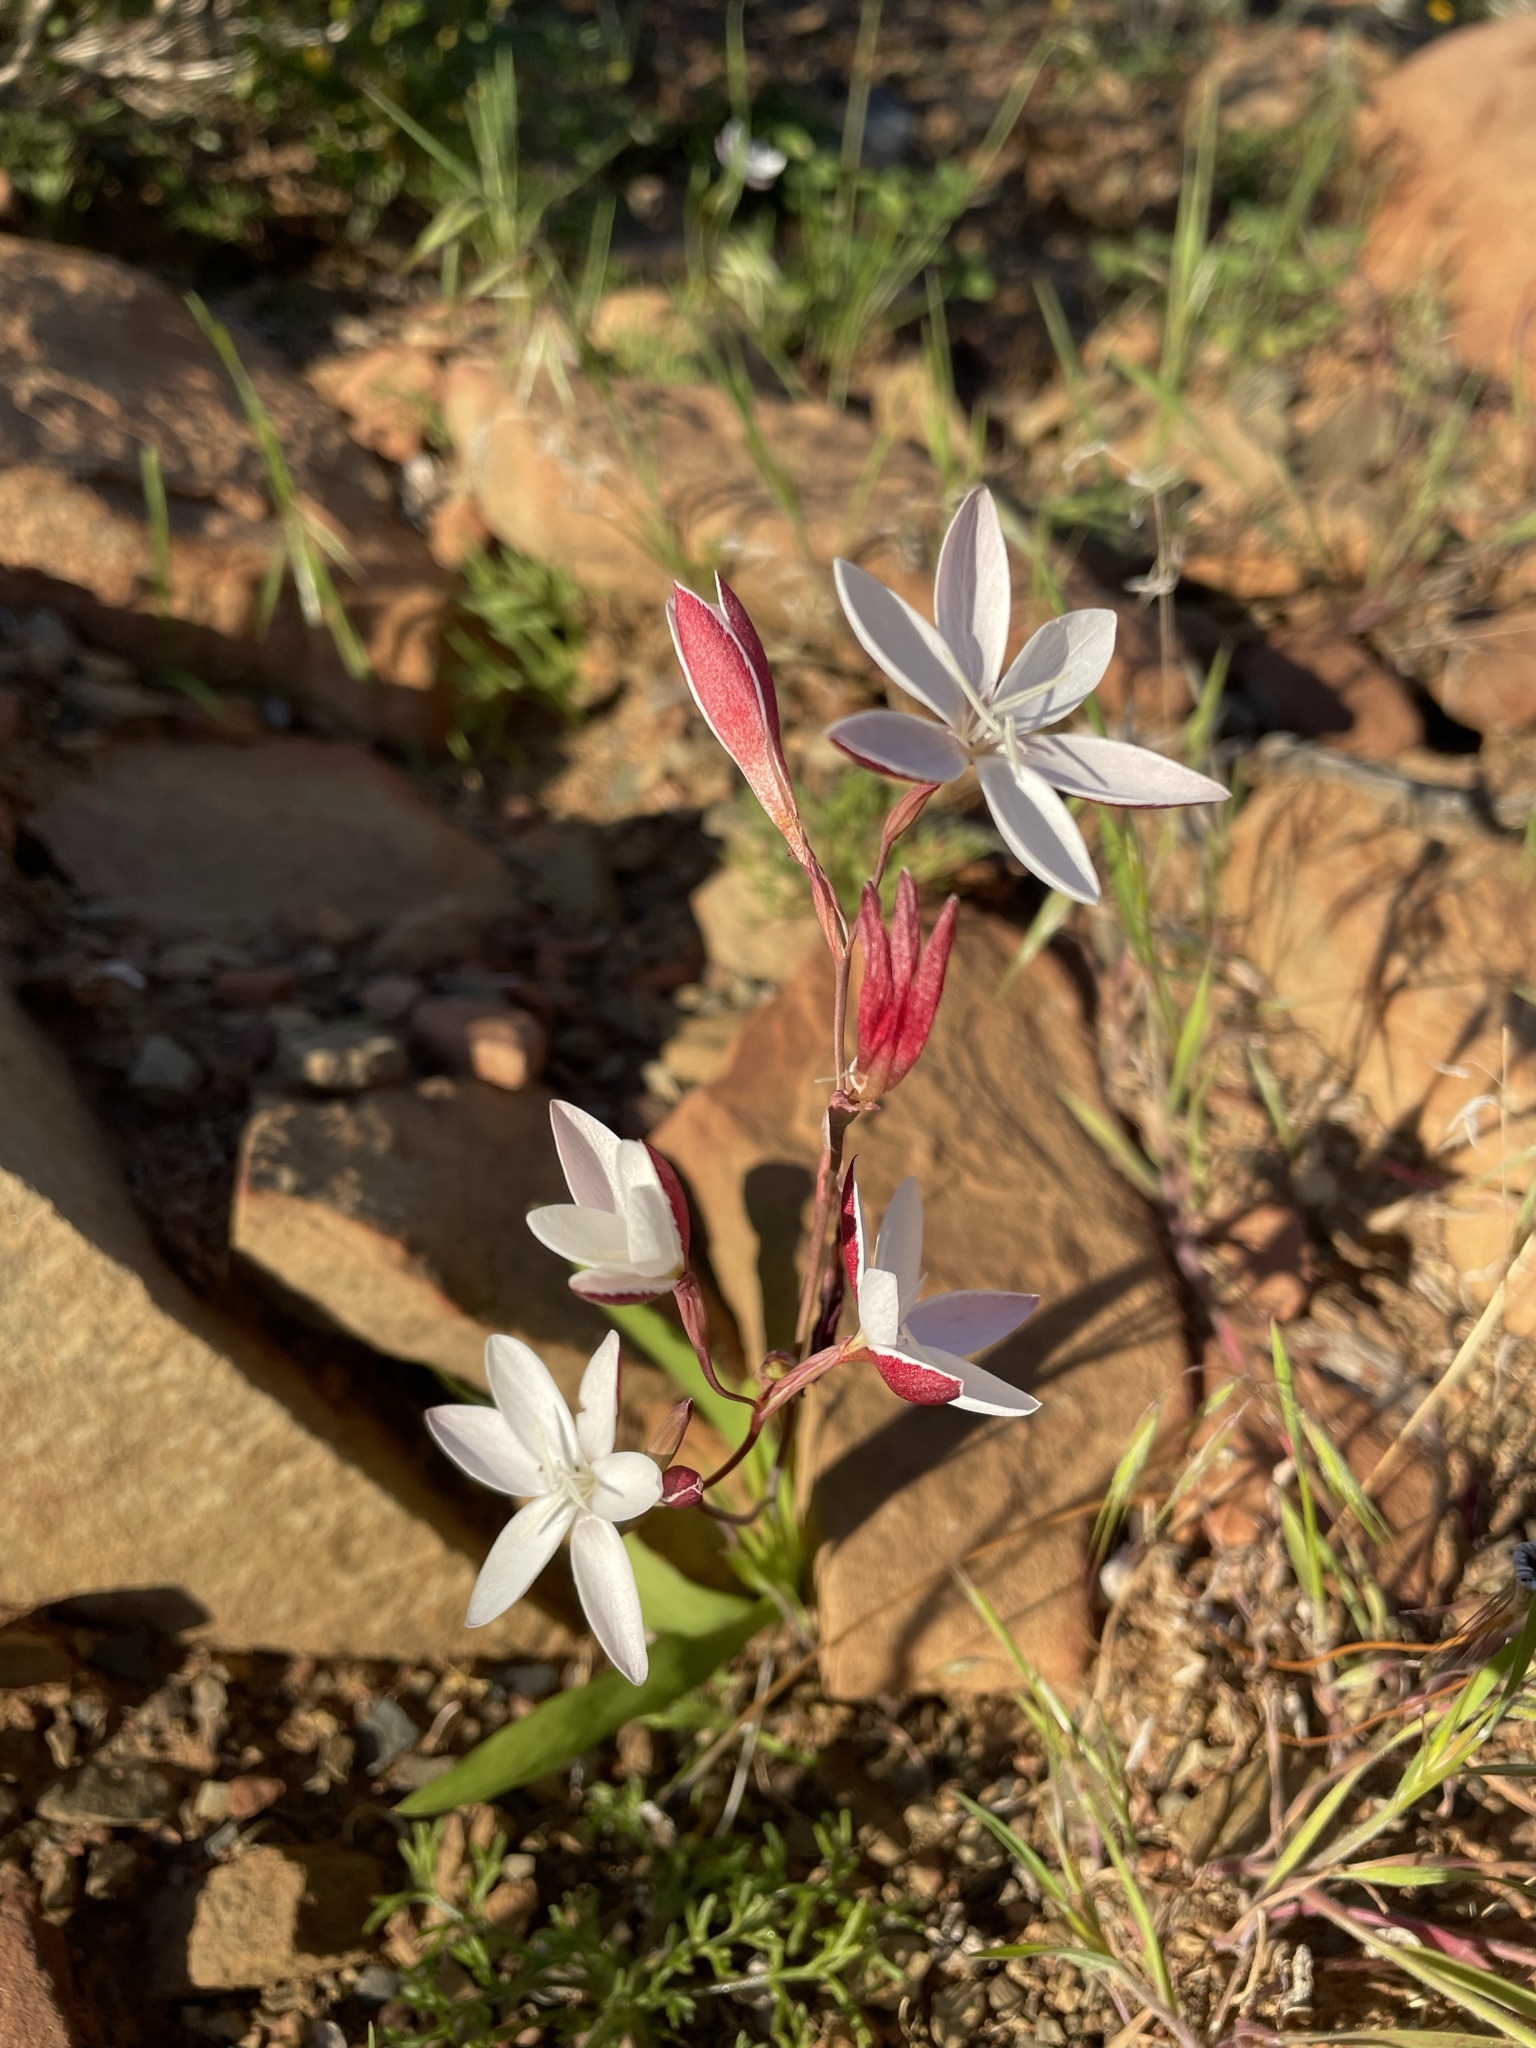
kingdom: Plantae
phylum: Tracheophyta
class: Liliopsida
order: Asparagales
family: Iridaceae
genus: Hesperantha
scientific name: Hesperantha falcata
